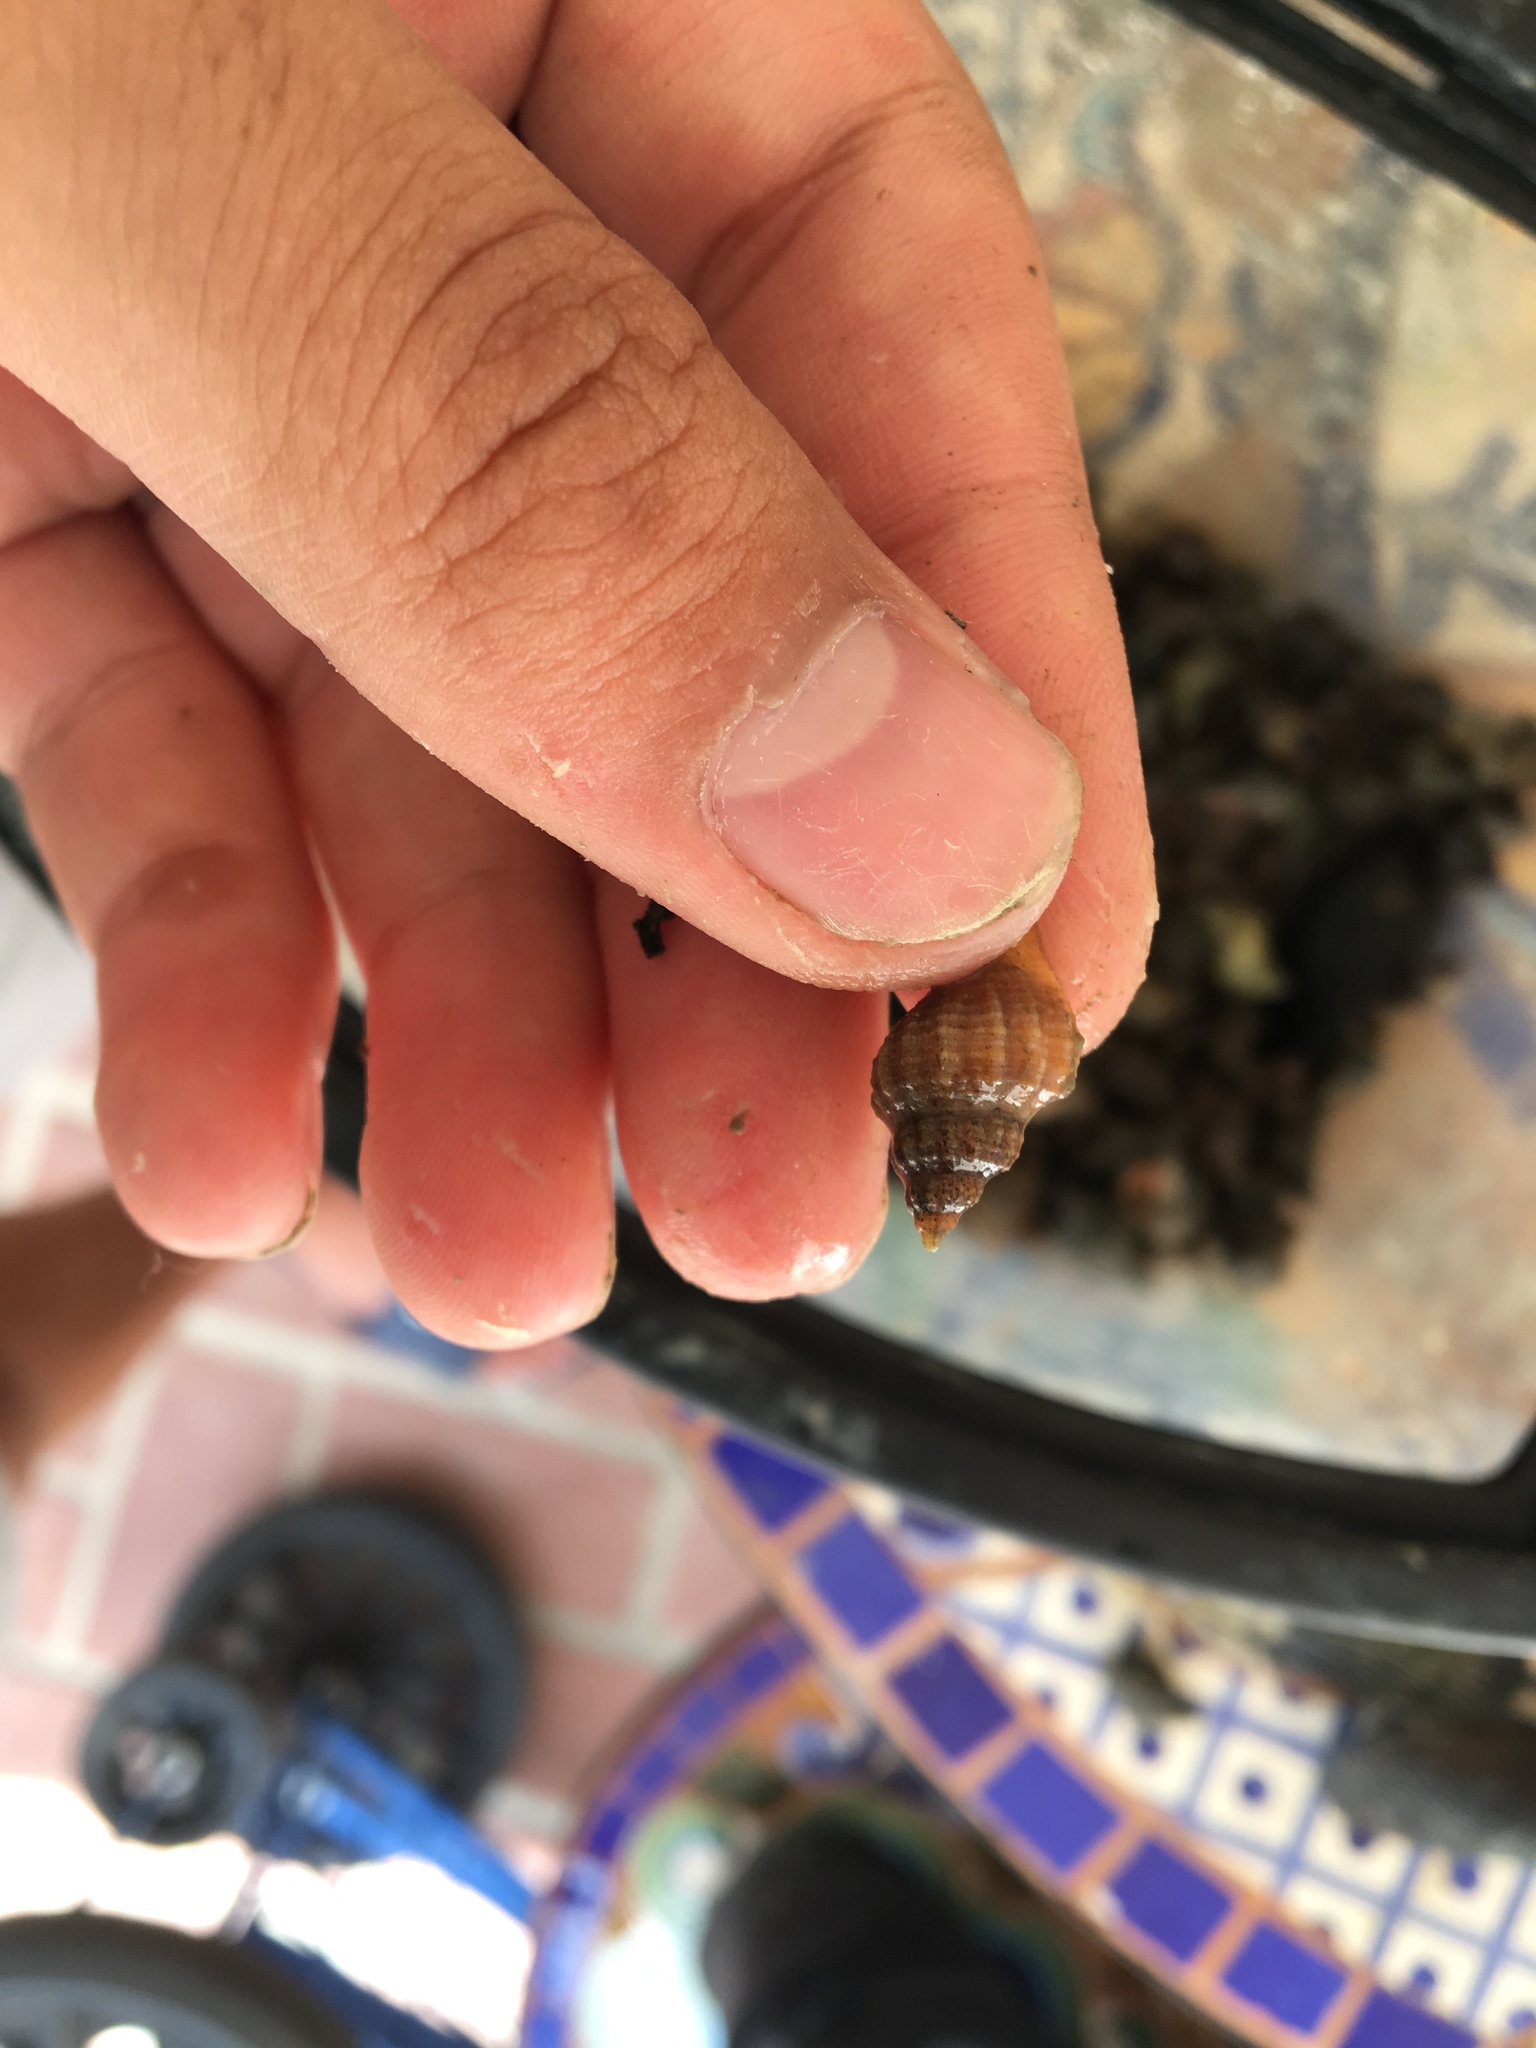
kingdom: Animalia
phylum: Mollusca
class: Gastropoda
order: Neogastropoda
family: Muricidae
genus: Urosalpinx
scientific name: Urosalpinx cinerea
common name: American sting winkle
